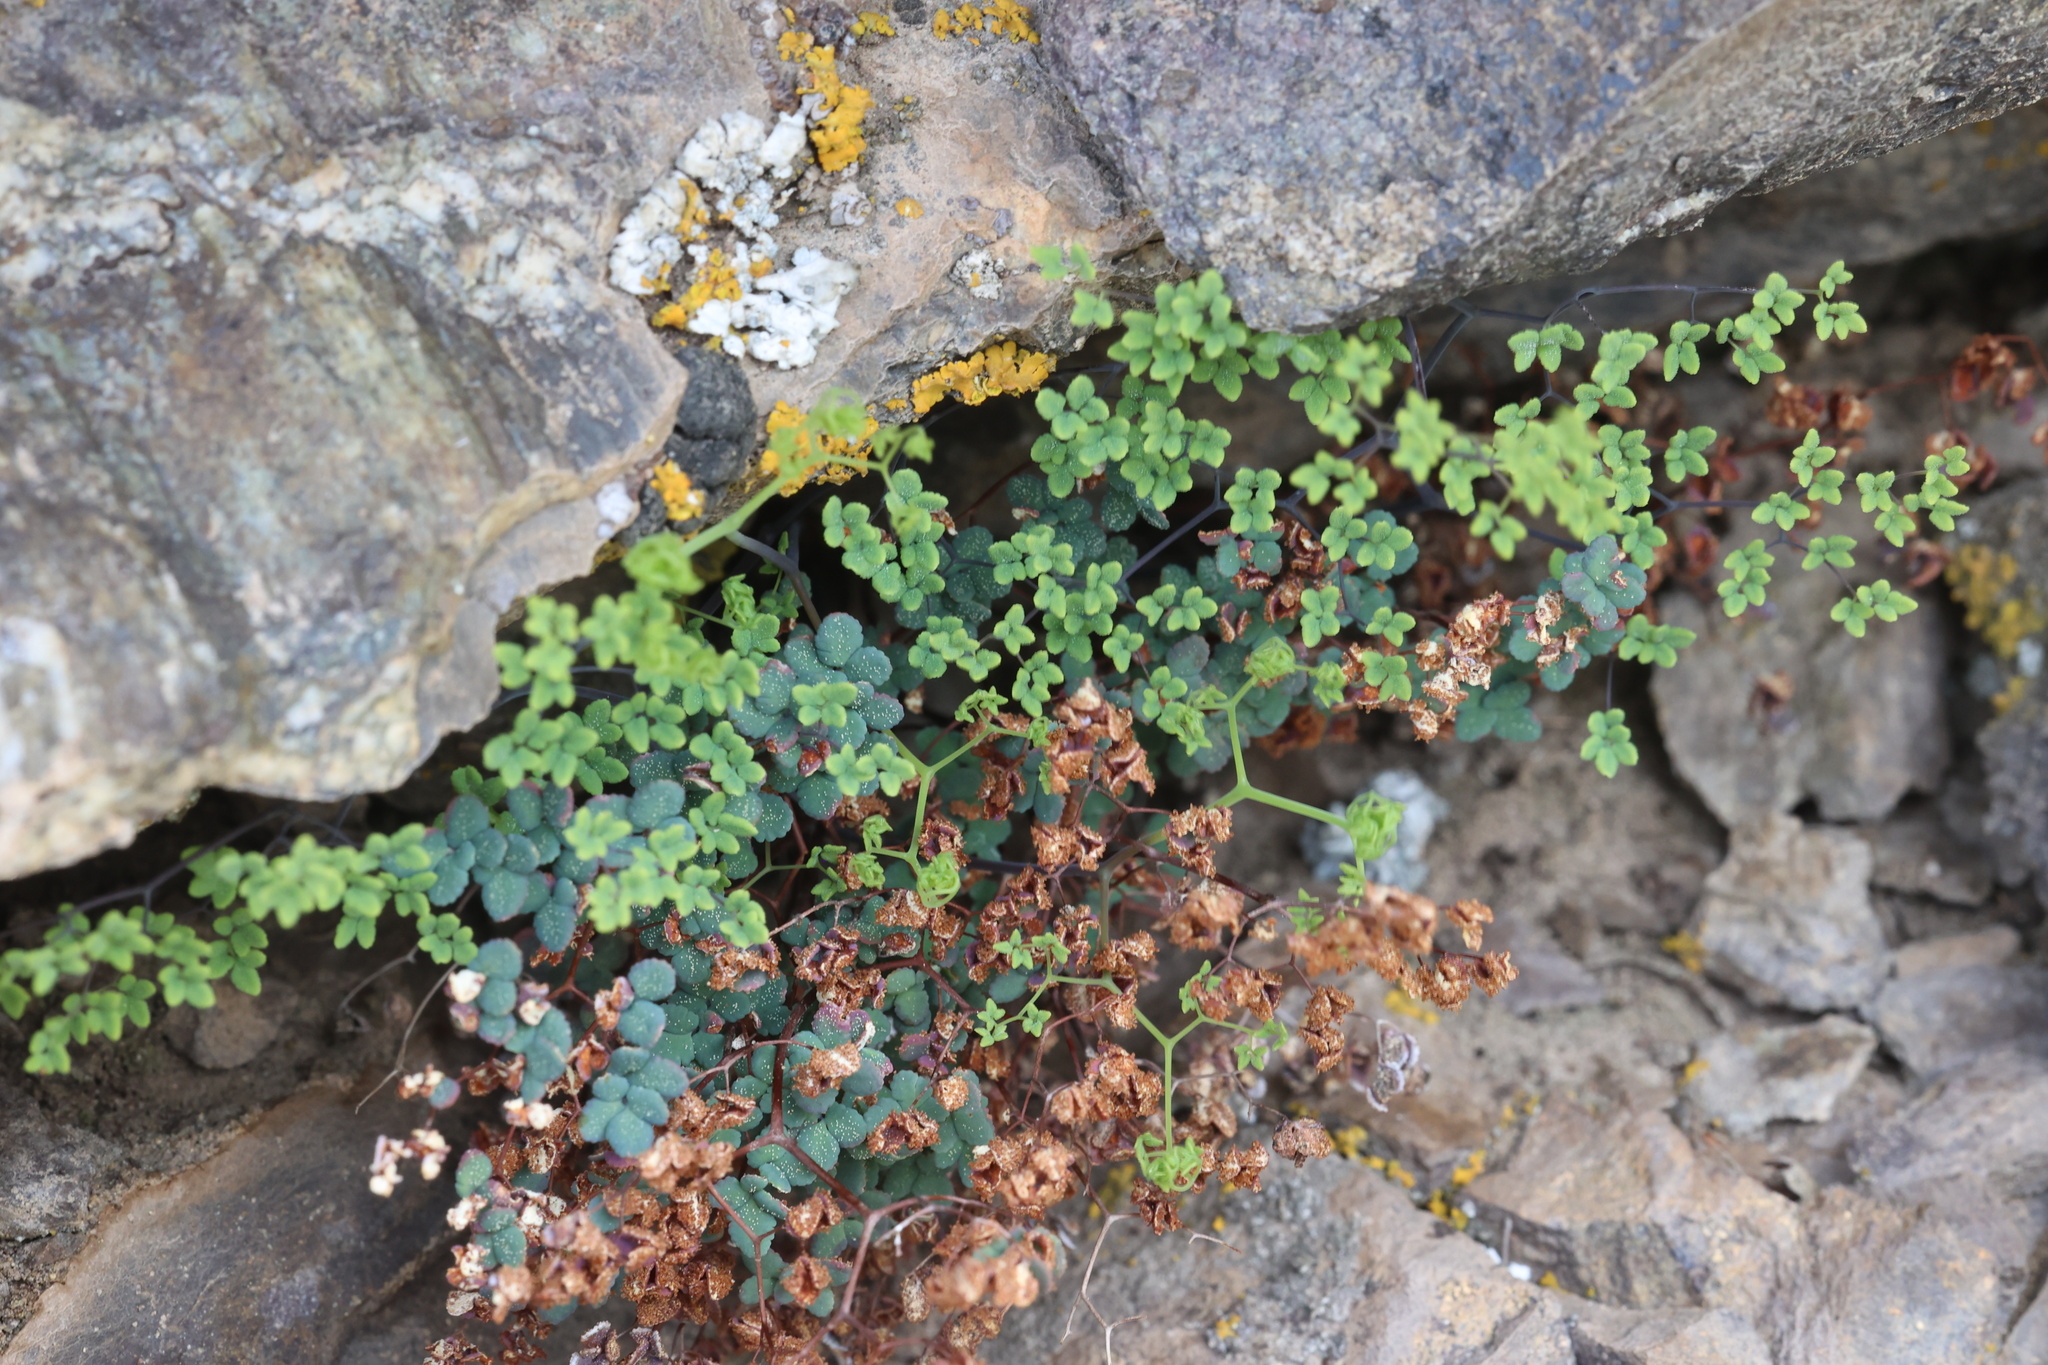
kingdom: Plantae
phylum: Tracheophyta
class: Polypodiopsida
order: Polypodiales
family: Pteridaceae
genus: Argyrochosma
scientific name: Argyrochosma fendleri
